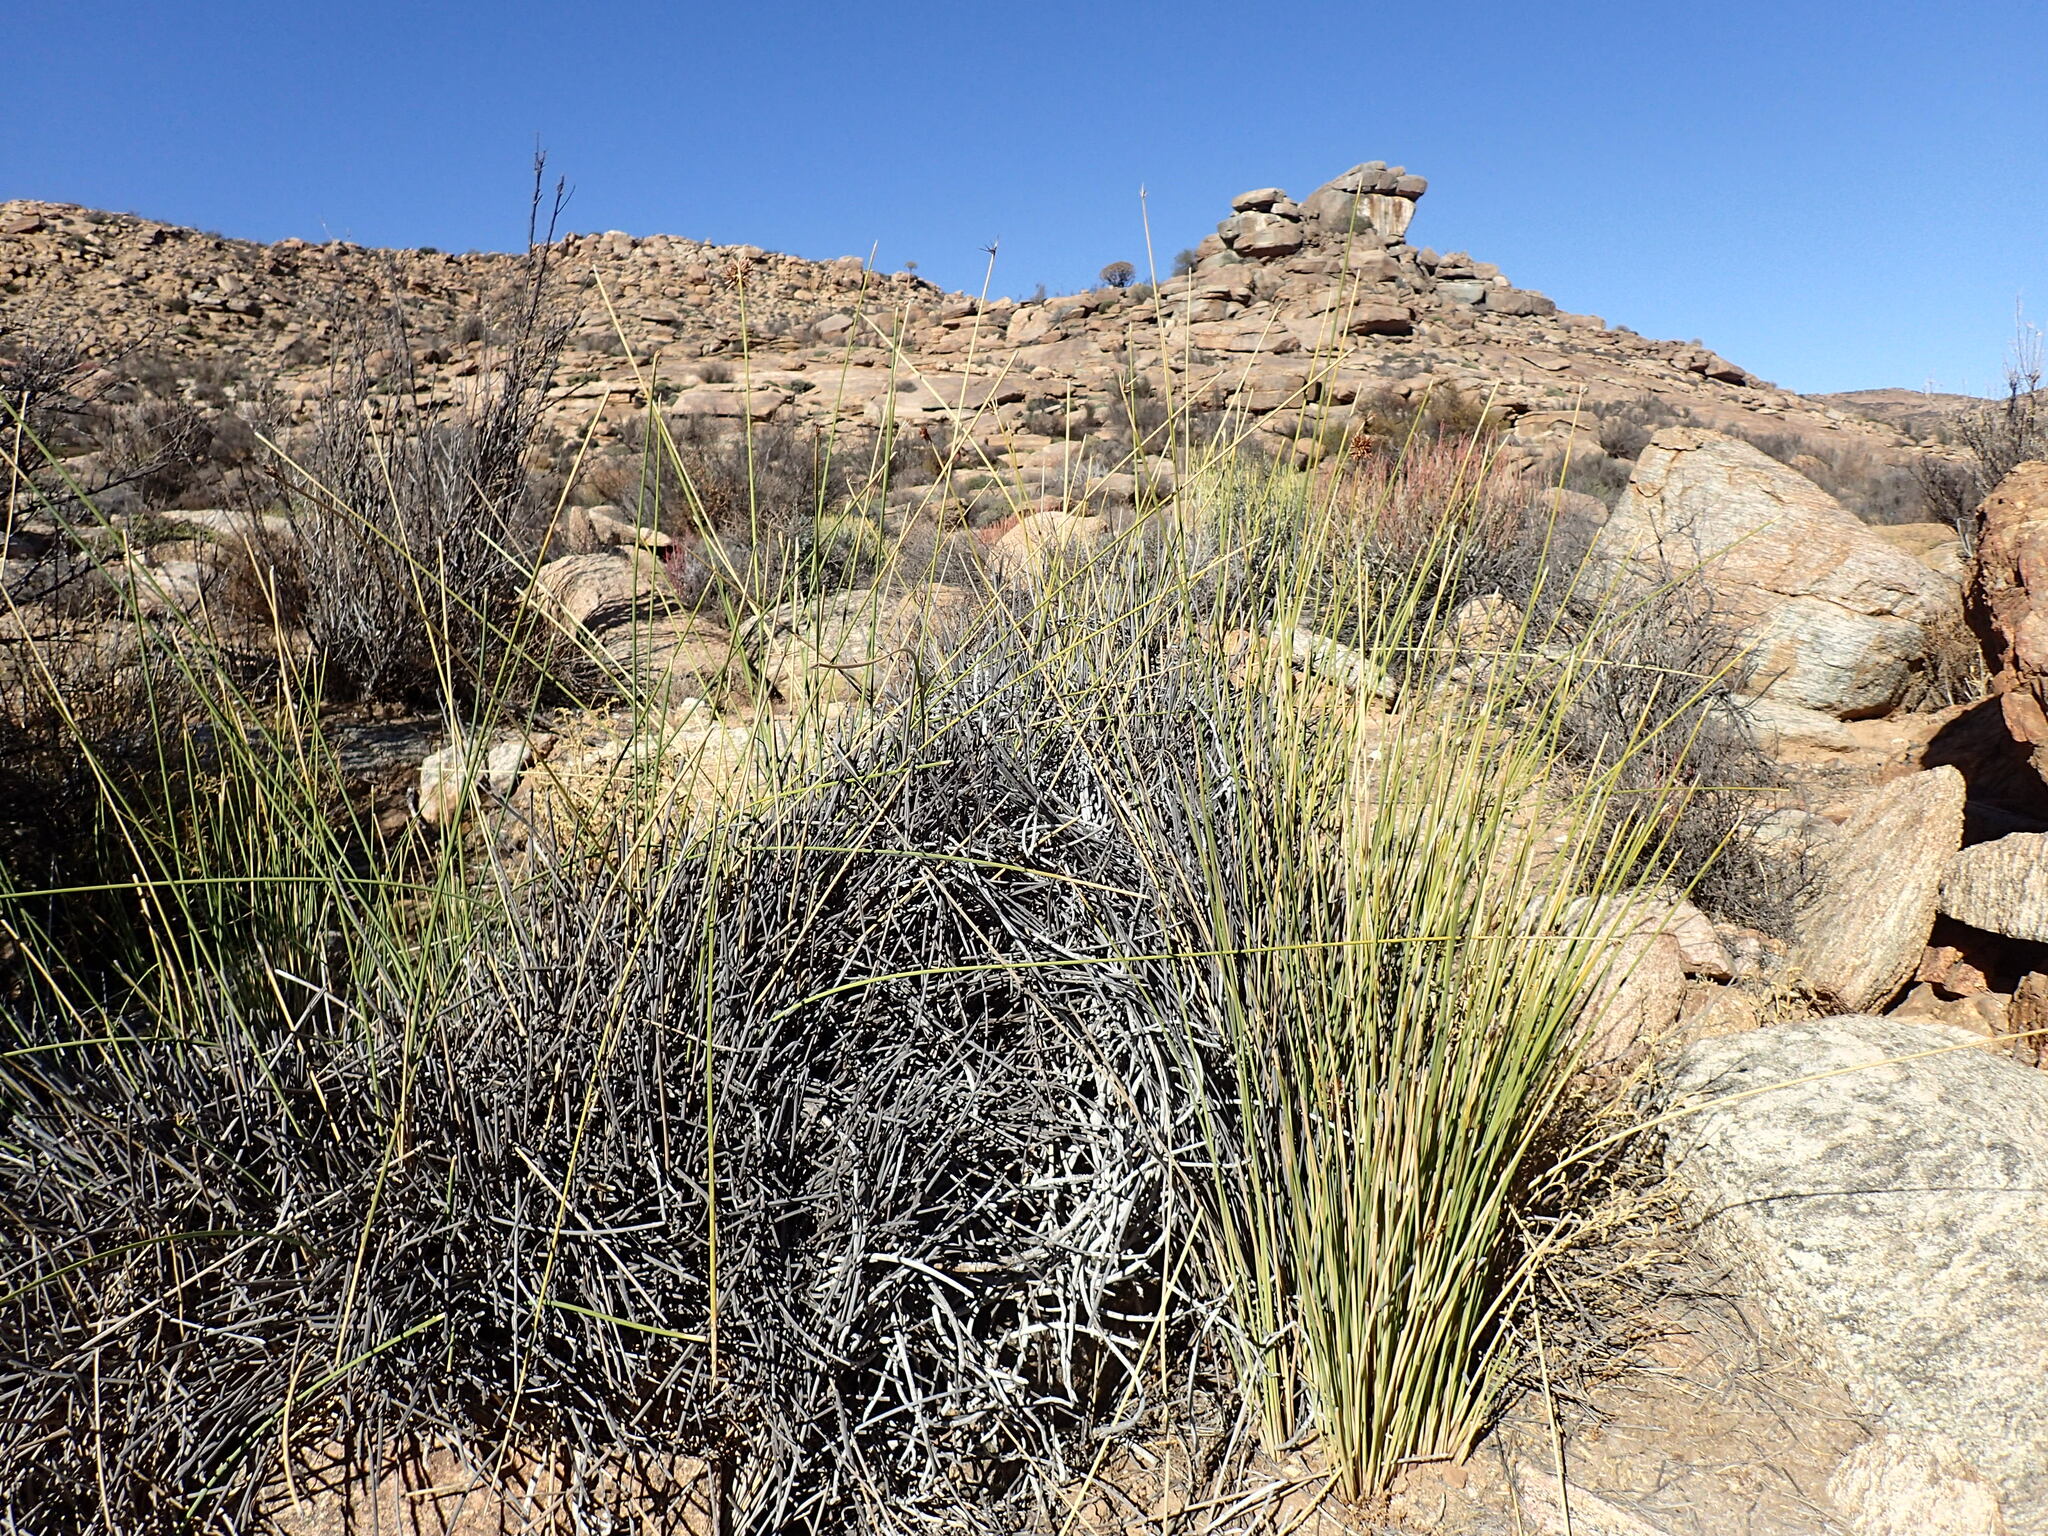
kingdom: Plantae
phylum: Tracheophyta
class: Liliopsida
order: Poales
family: Cyperaceae
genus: Cyperus
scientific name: Cyperus marginatus
